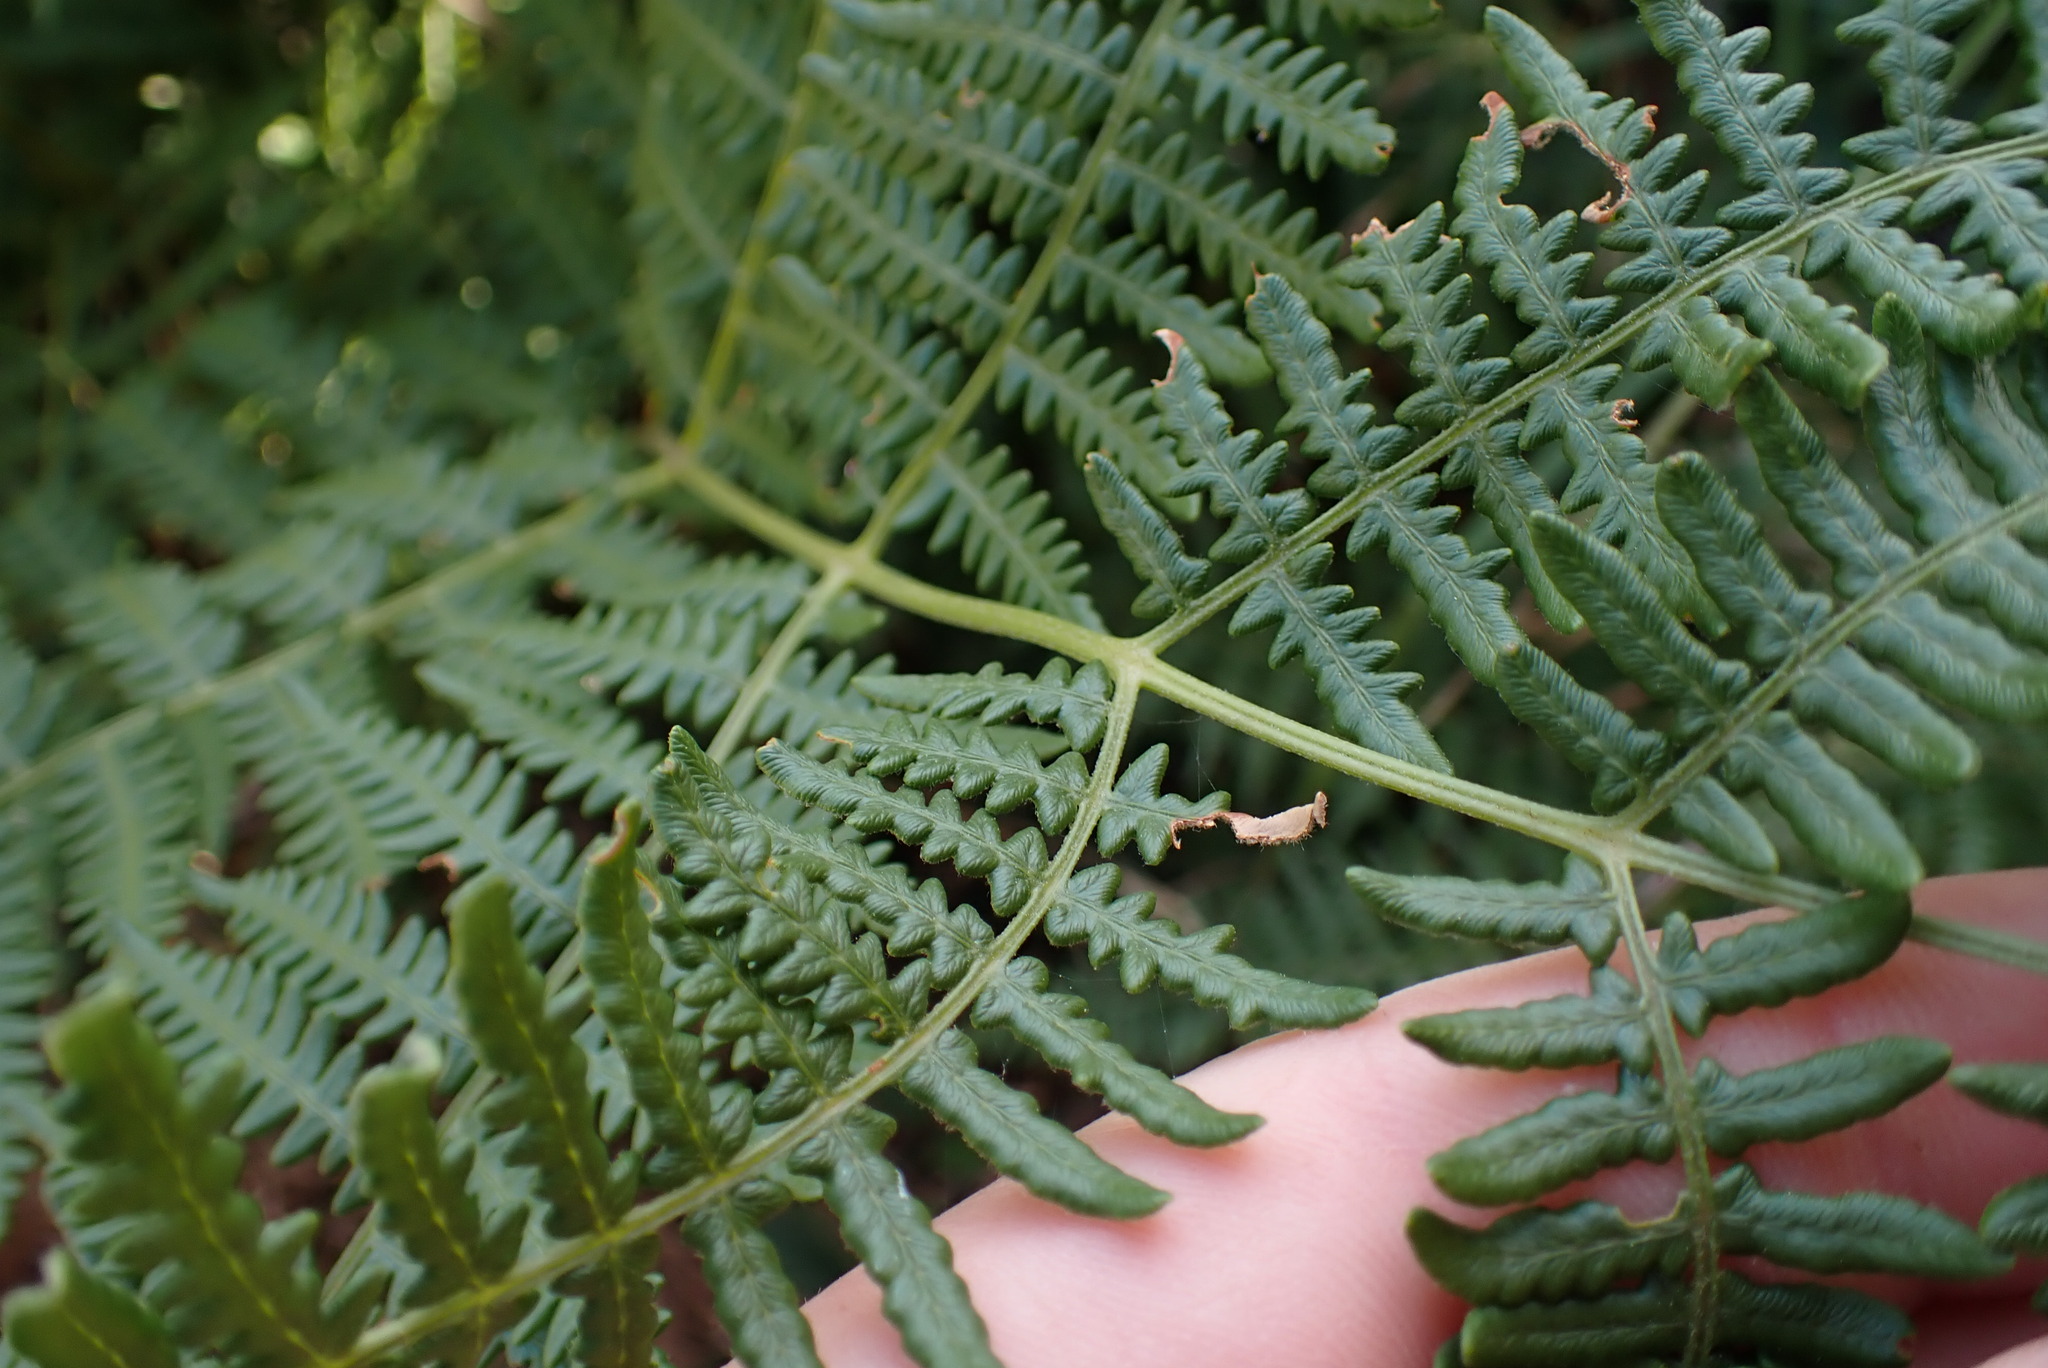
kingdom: Plantae
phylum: Tracheophyta
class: Polypodiopsida
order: Polypodiales
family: Dennstaedtiaceae
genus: Pteridium
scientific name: Pteridium aquilinum
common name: Bracken
